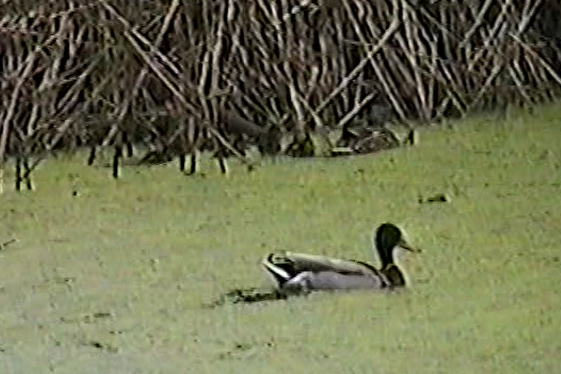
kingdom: Animalia
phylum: Chordata
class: Aves
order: Anseriformes
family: Anatidae
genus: Anas
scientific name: Anas platyrhynchos
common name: Mallard
